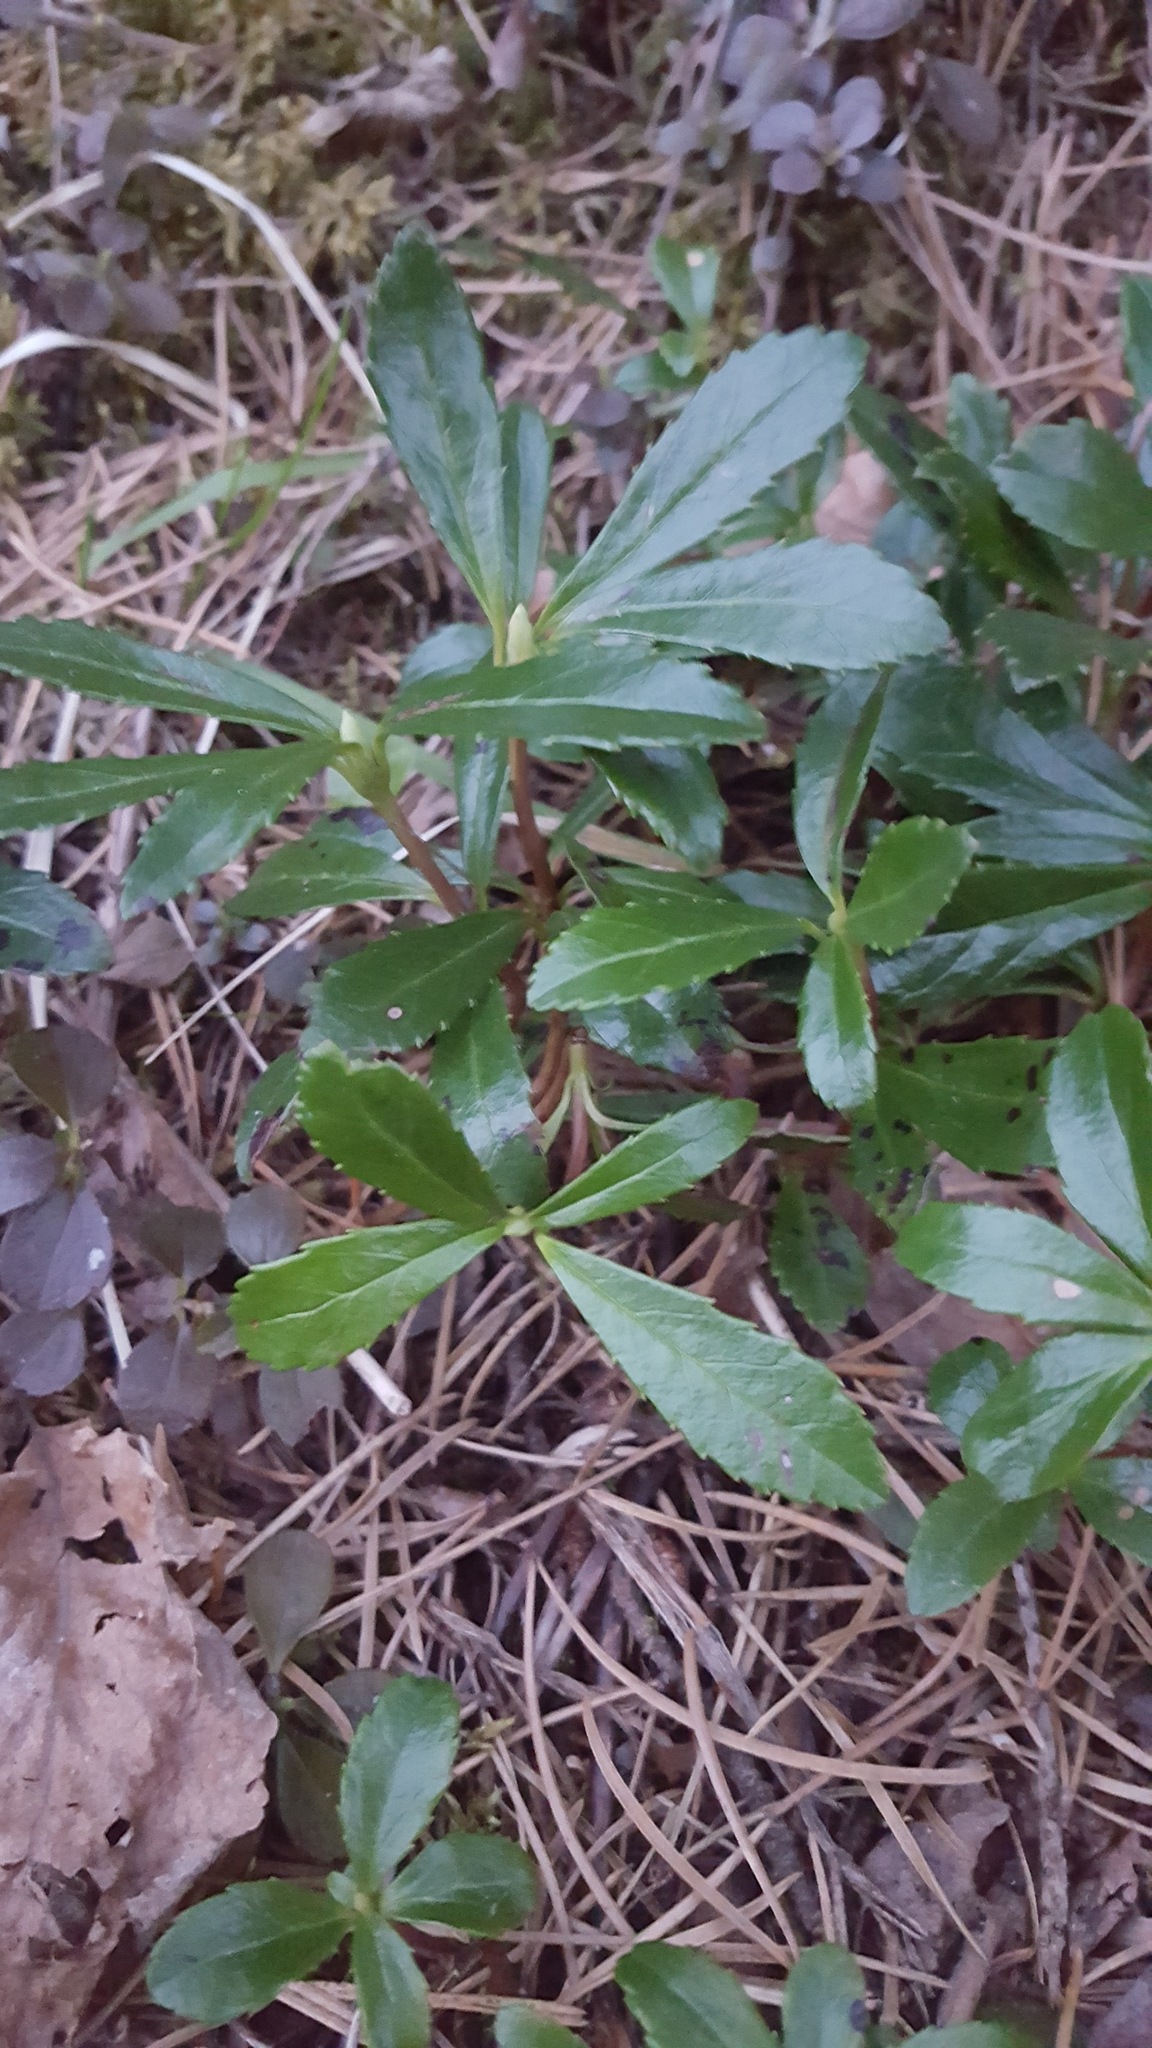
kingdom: Plantae
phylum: Tracheophyta
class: Magnoliopsida
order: Ericales
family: Ericaceae
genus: Chimaphila
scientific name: Chimaphila umbellata
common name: Pipsissewa
